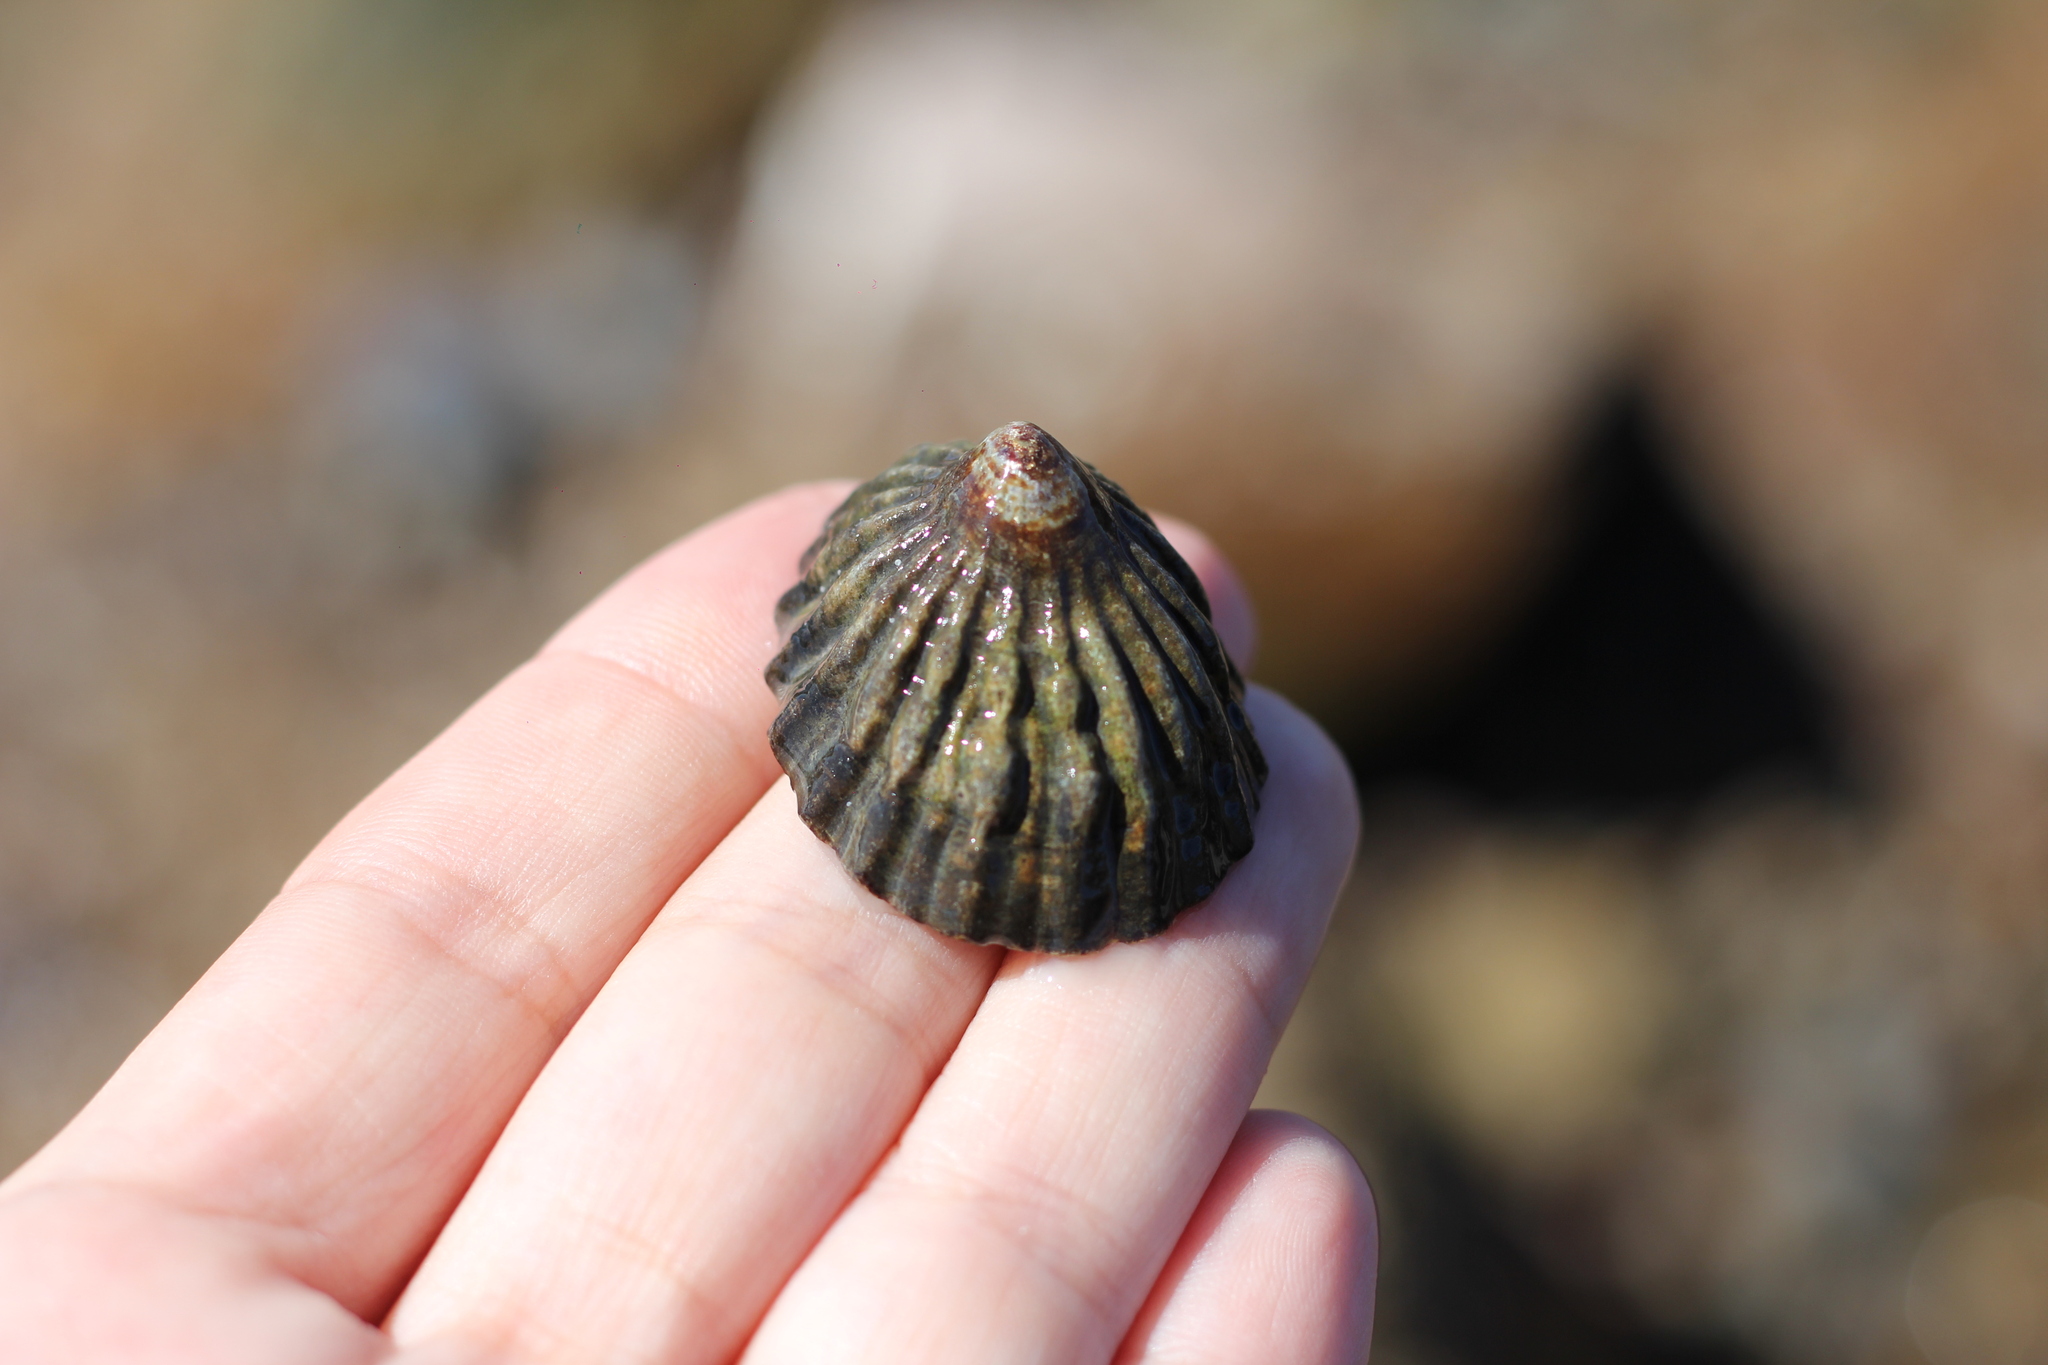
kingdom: Animalia
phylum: Mollusca
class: Gastropoda
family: Nacellidae
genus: Nacella
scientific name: Nacella magellanica
